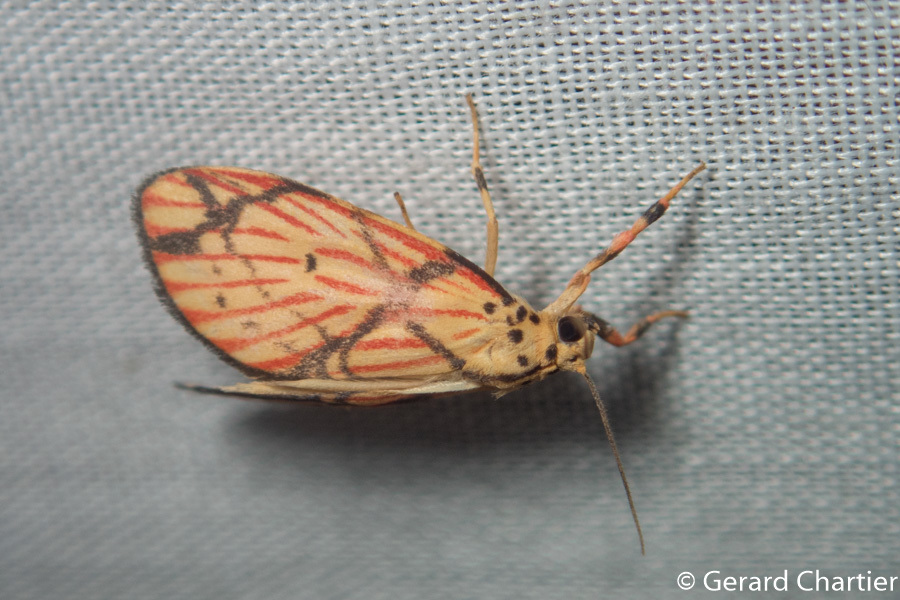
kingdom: Animalia
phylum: Arthropoda
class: Insecta
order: Lepidoptera
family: Erebidae
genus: Barsilene
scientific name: Barsilene pallinflexa
